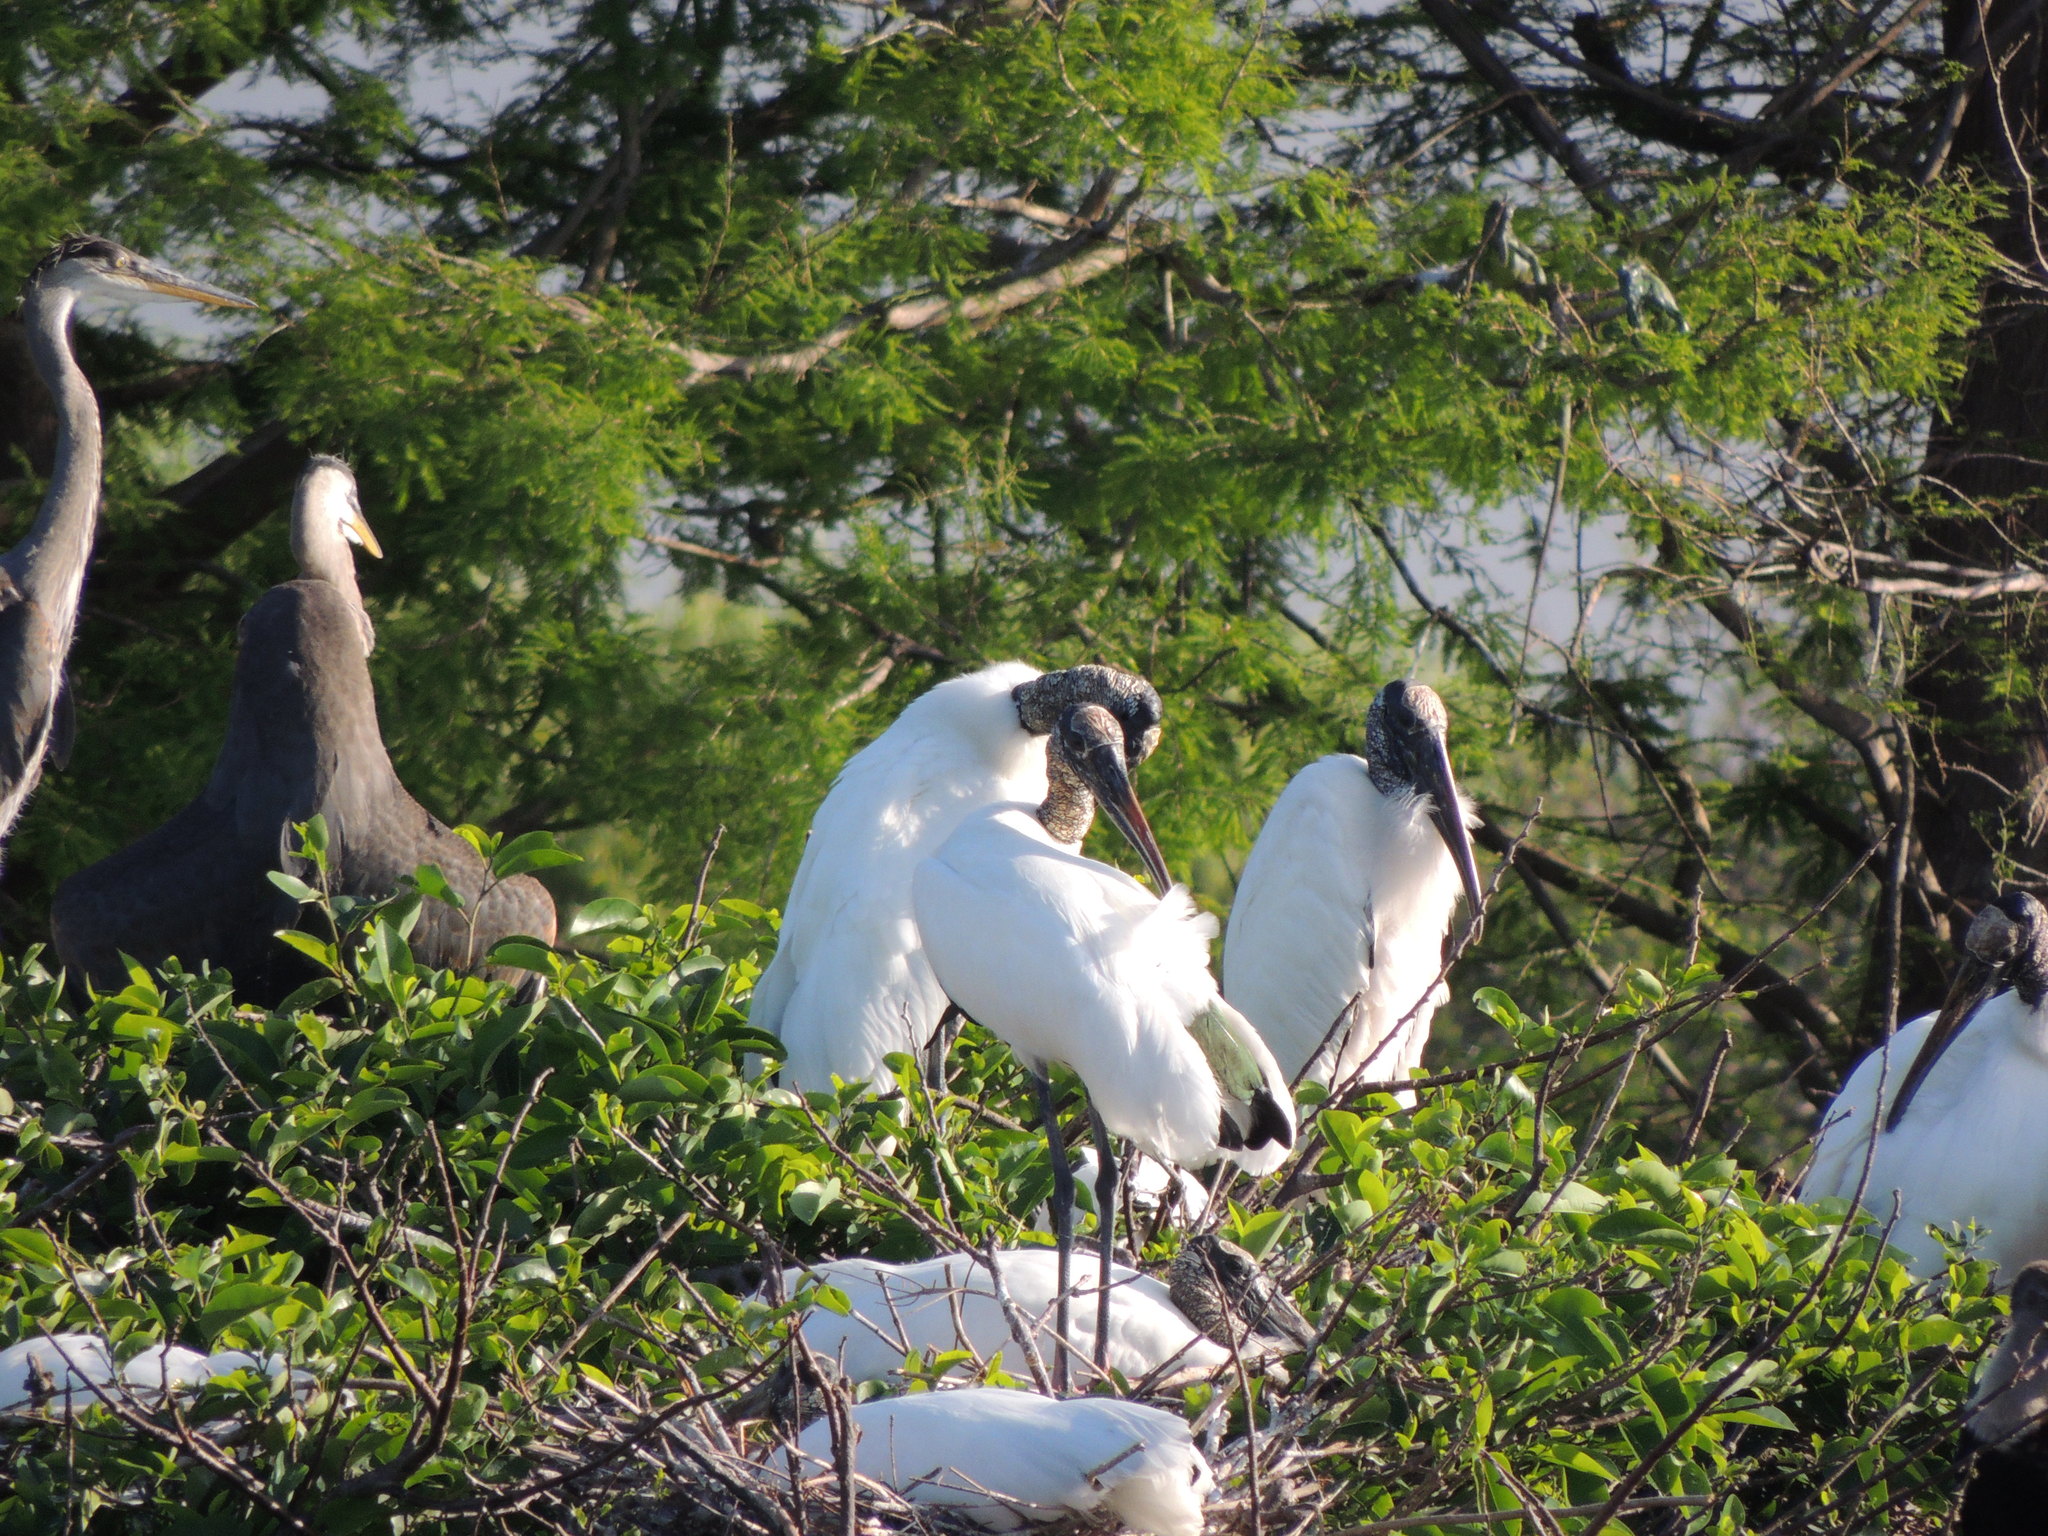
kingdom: Animalia
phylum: Chordata
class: Aves
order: Ciconiiformes
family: Ciconiidae
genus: Mycteria
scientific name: Mycteria americana
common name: Wood stork
